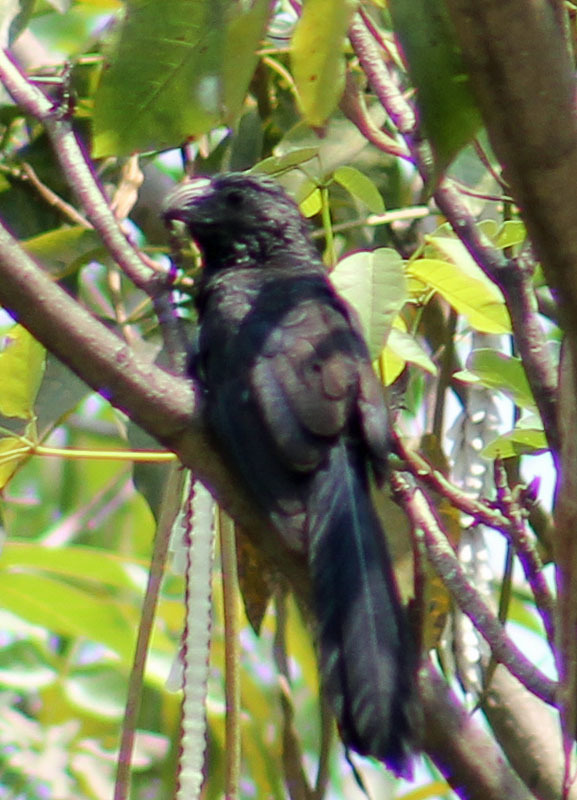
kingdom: Animalia
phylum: Chordata
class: Aves
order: Cuculiformes
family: Cuculidae
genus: Crotophaga
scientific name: Crotophaga sulcirostris
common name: Groove-billed ani
